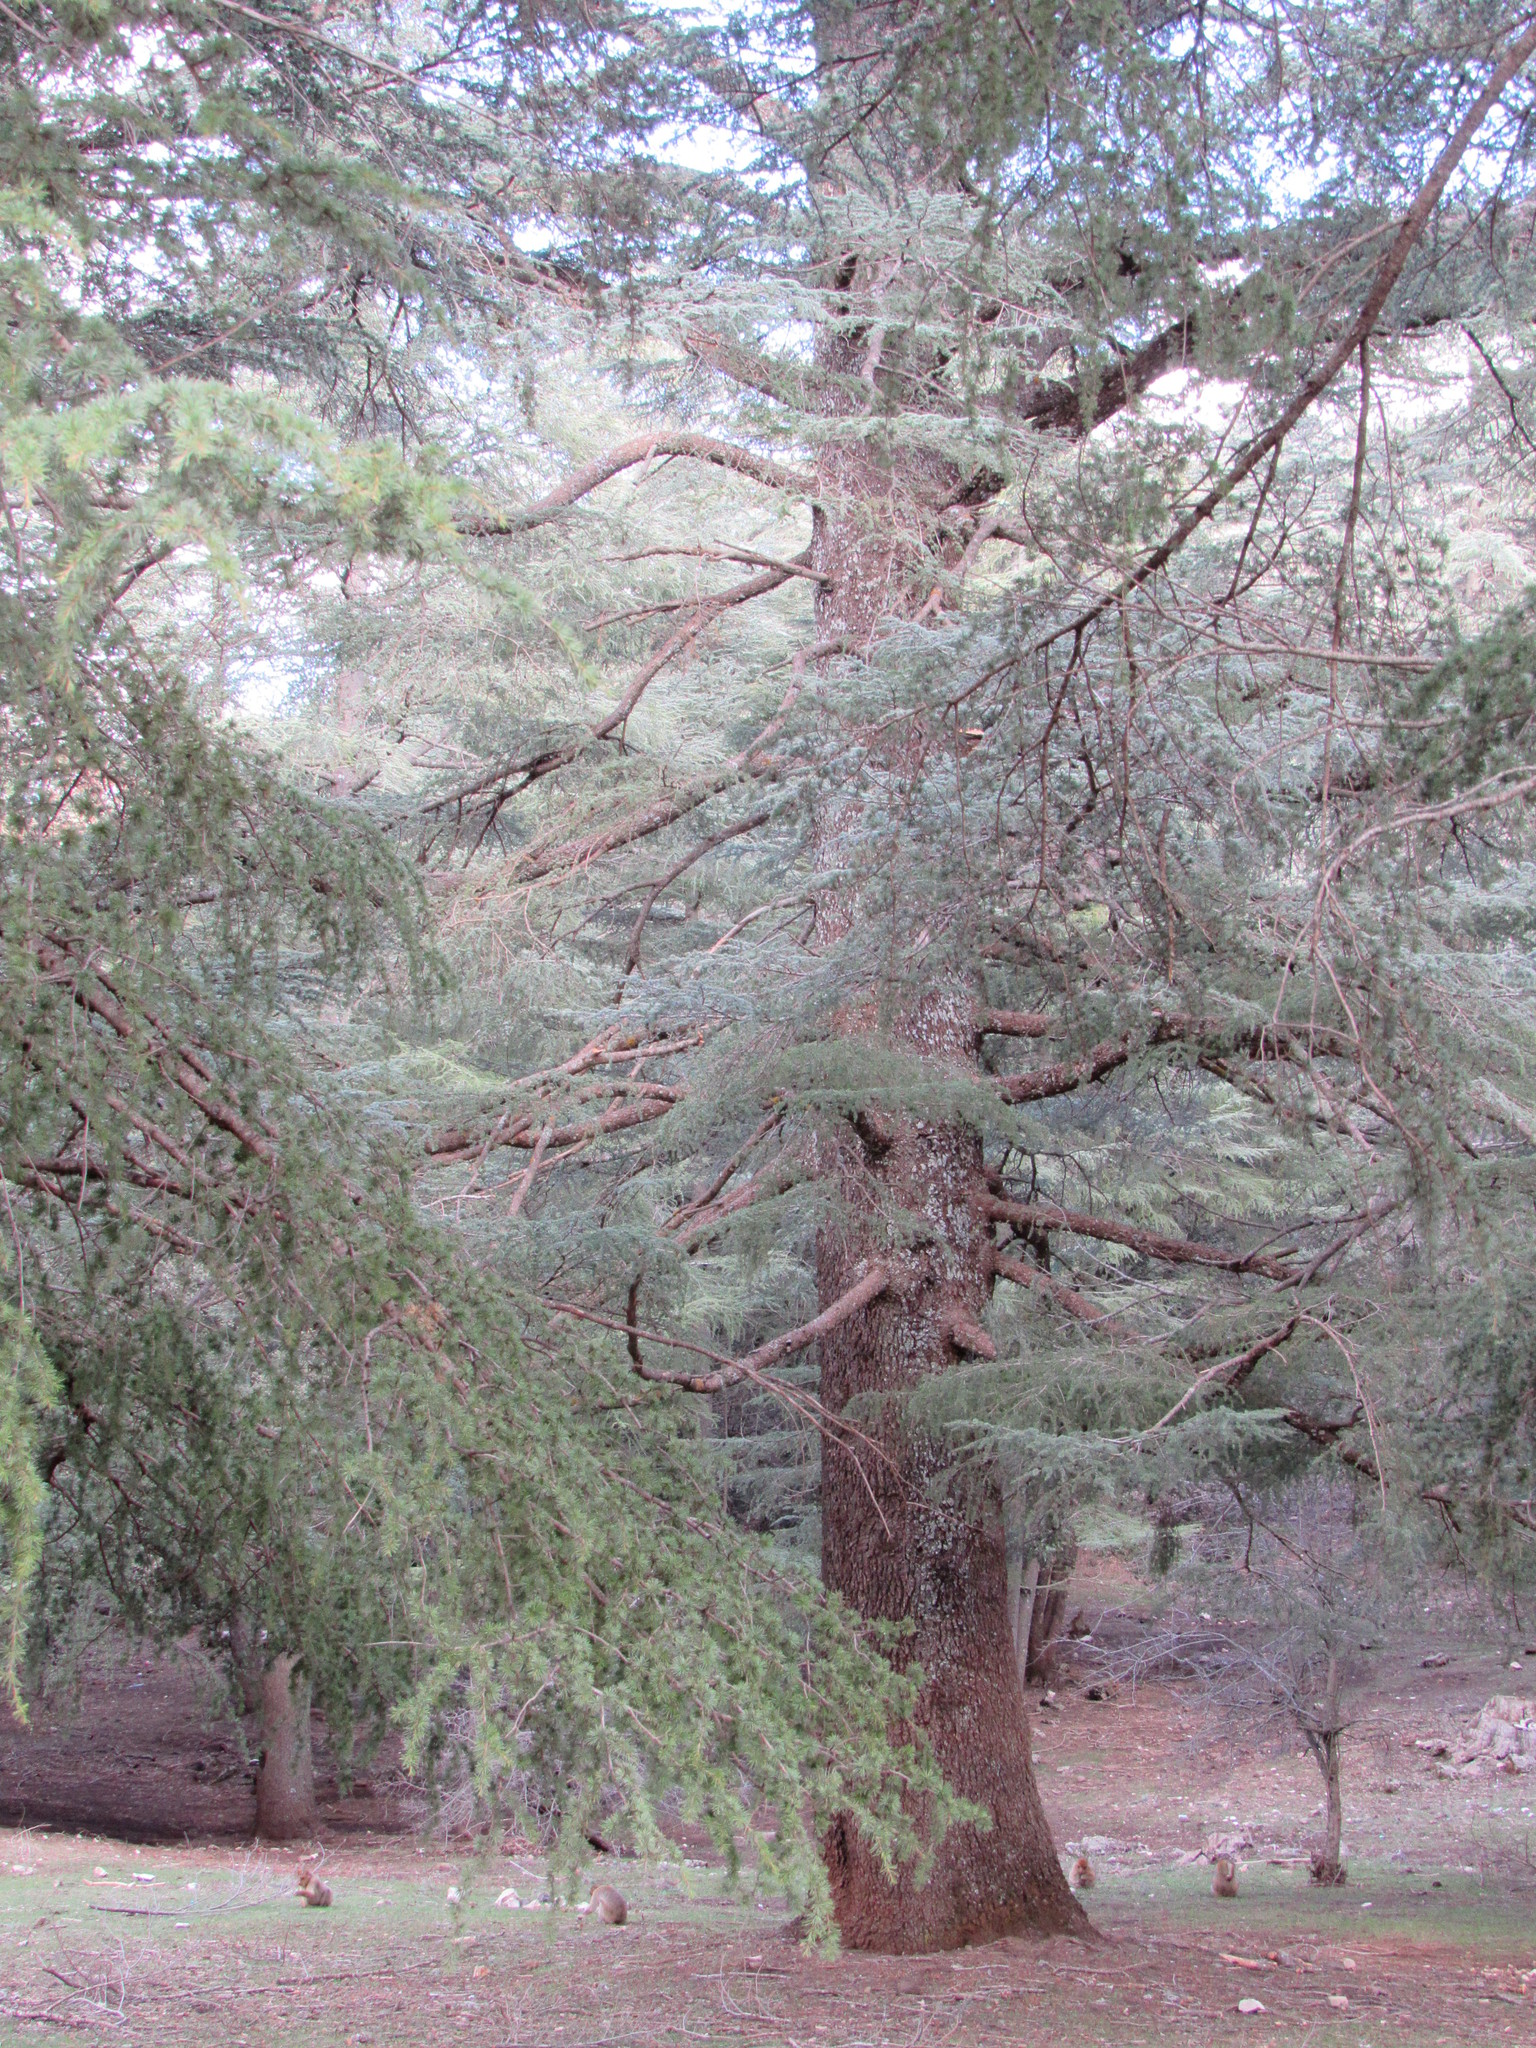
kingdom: Plantae
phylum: Tracheophyta
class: Pinopsida
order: Pinales
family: Pinaceae
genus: Cedrus
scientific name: Cedrus atlantica
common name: Atlas cedar
